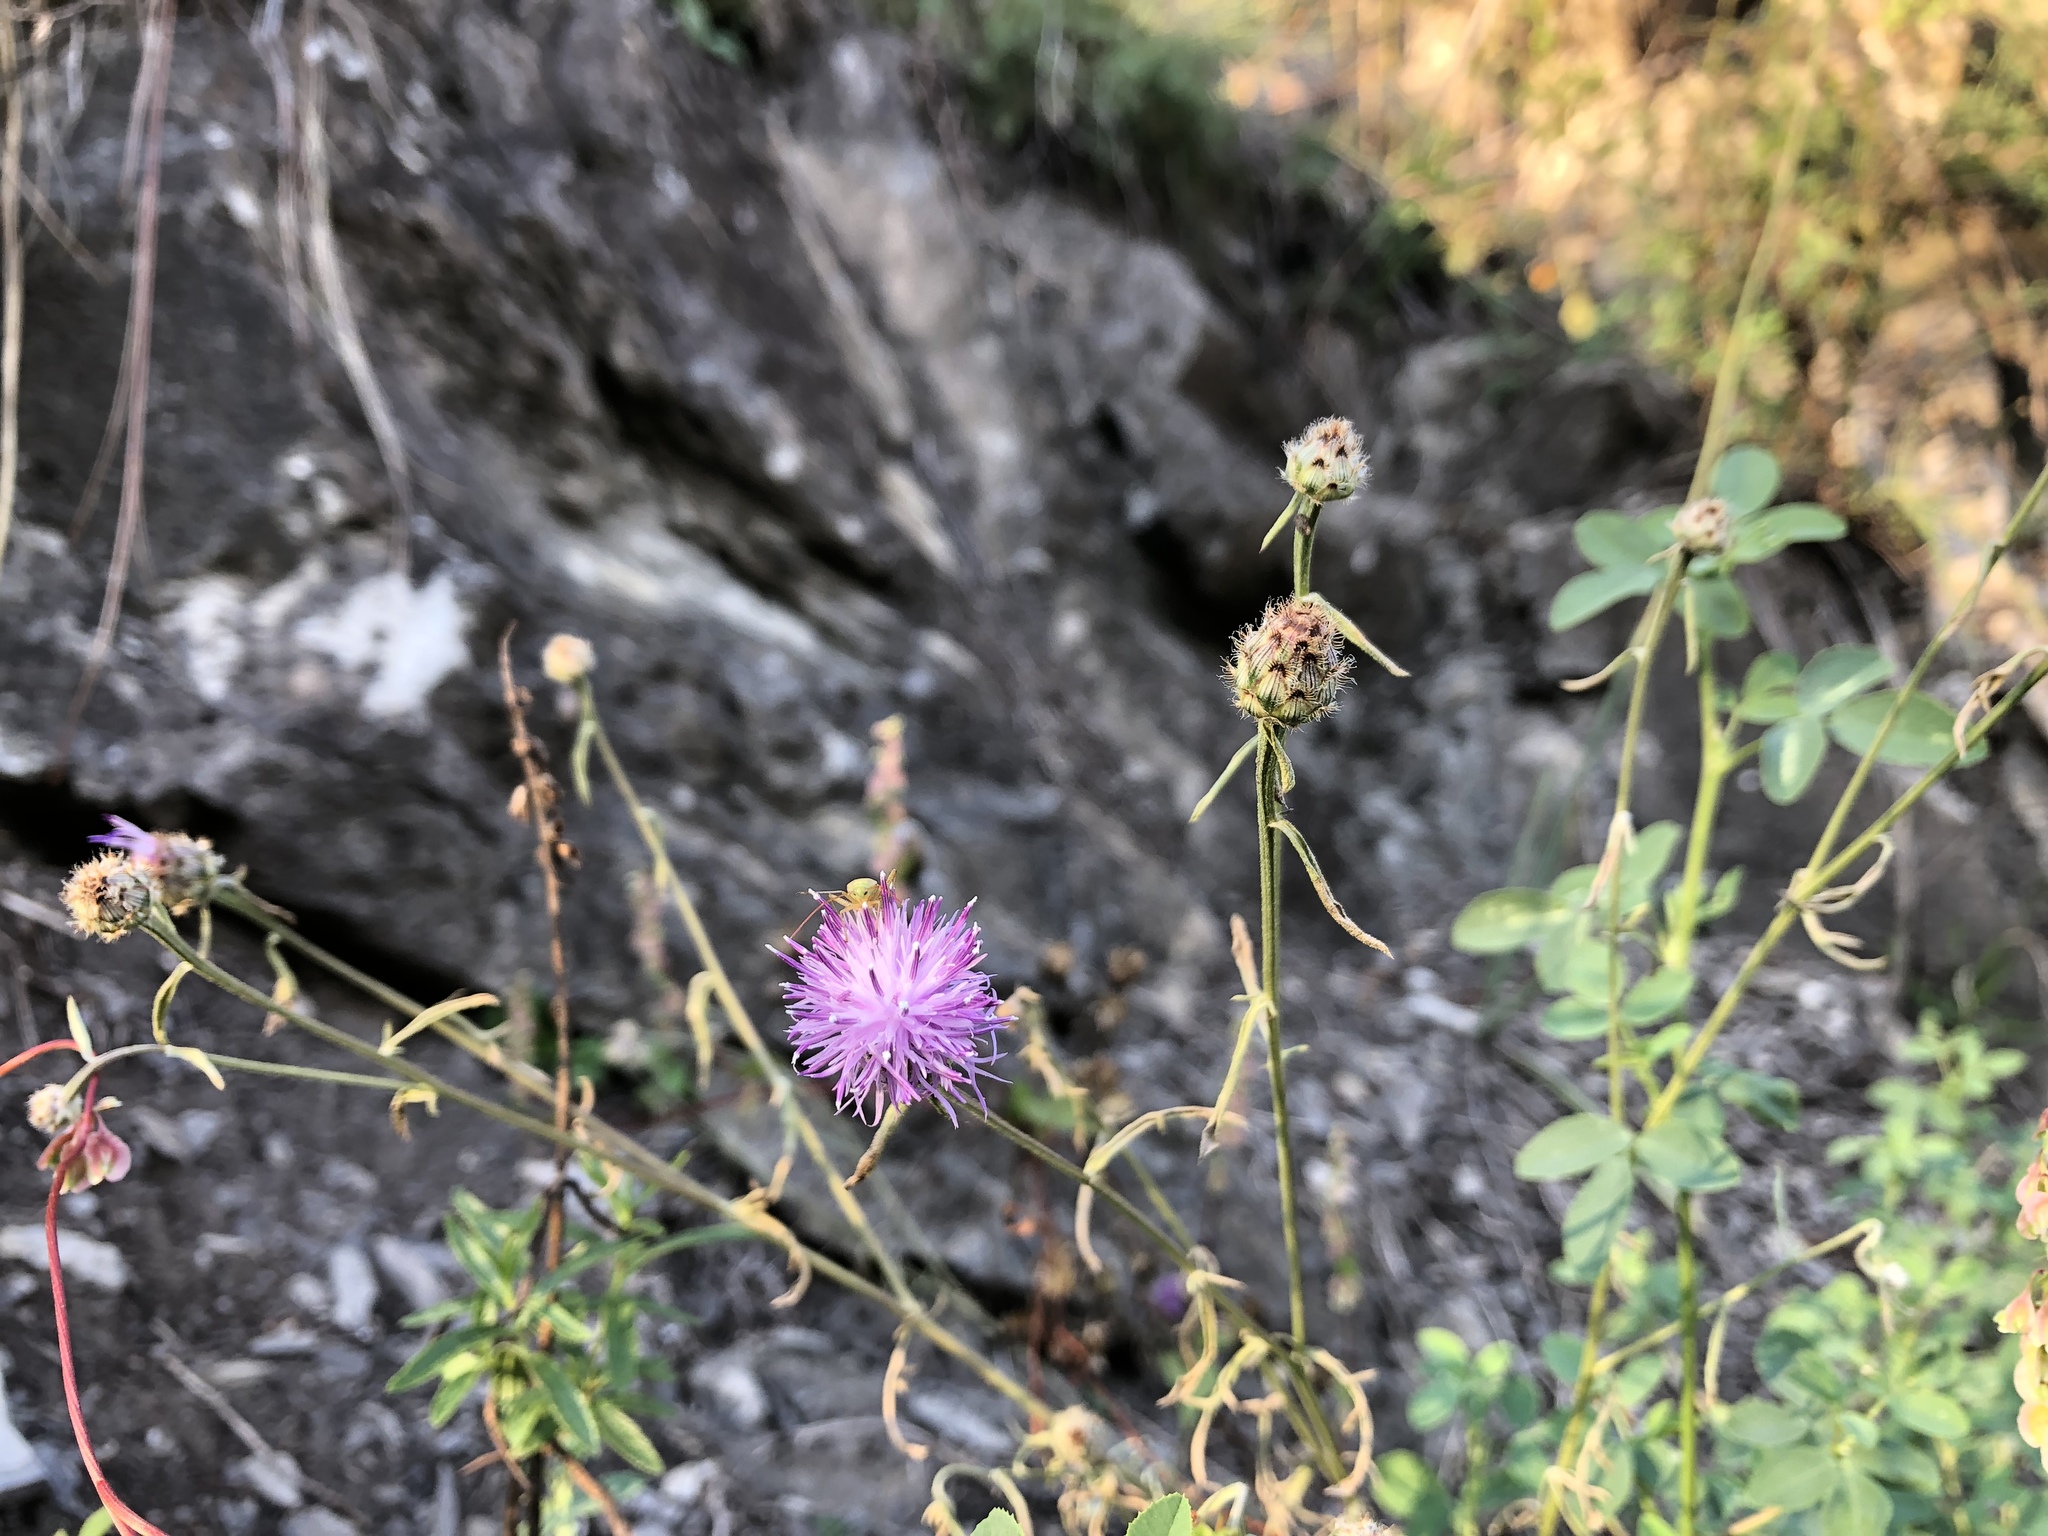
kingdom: Plantae
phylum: Tracheophyta
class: Magnoliopsida
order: Asterales
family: Asteraceae
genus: Centaurea
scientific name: Centaurea stoebe
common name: Spotted knapweed
